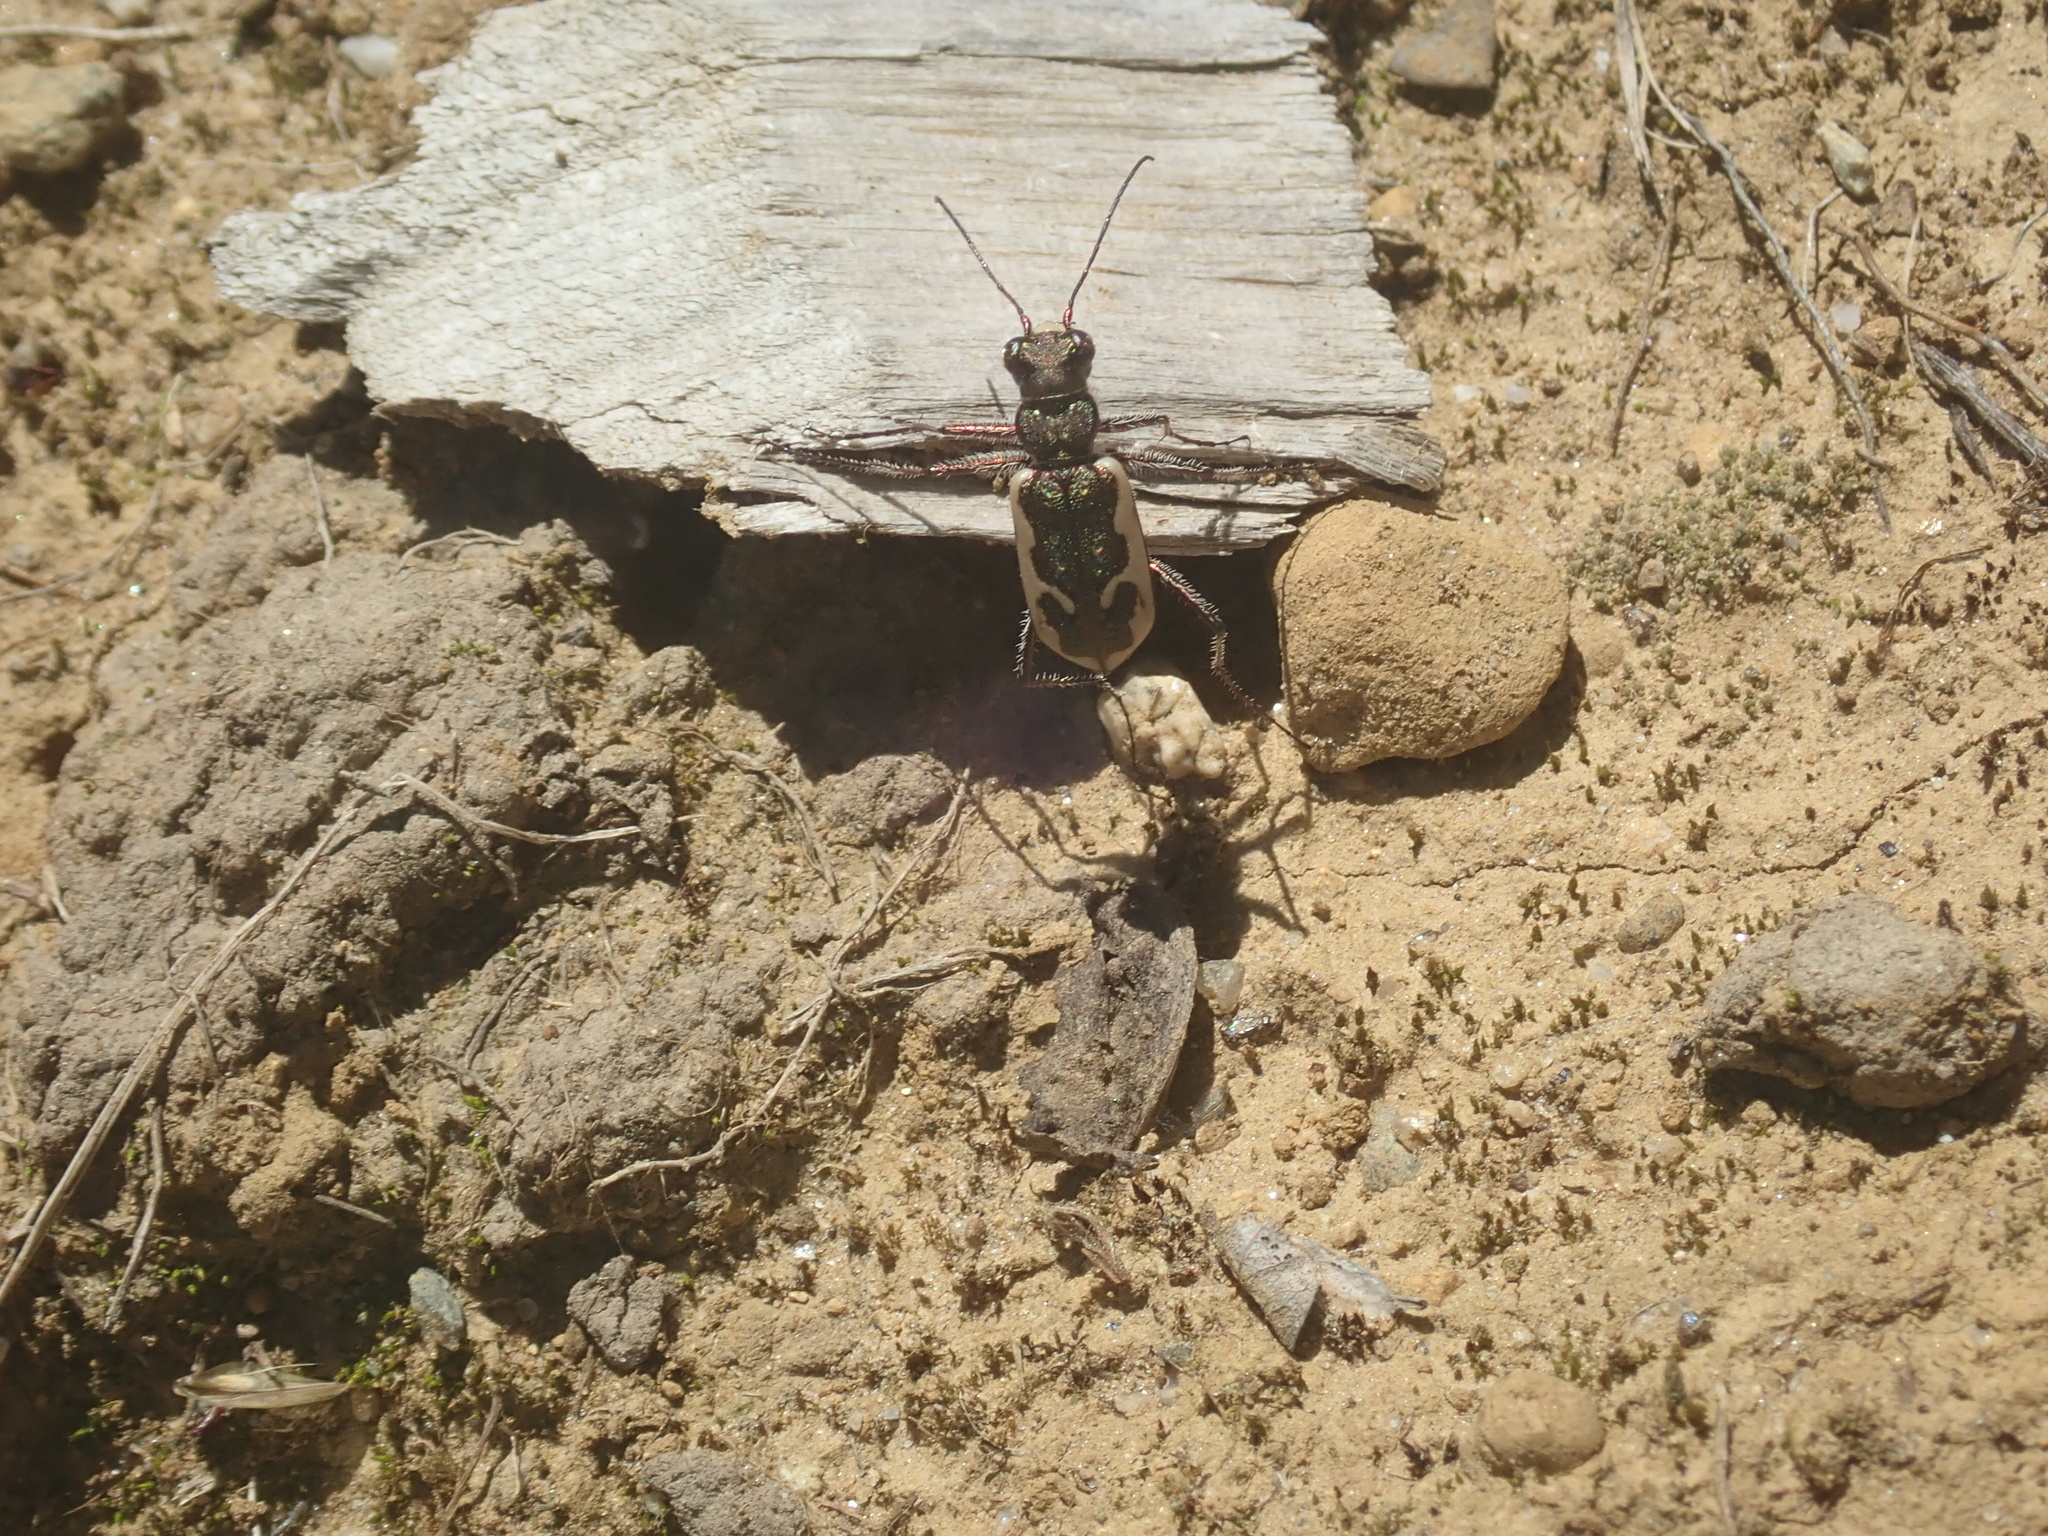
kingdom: Animalia
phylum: Arthropoda
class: Insecta
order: Coleoptera
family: Carabidae
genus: Neocicindela
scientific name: Neocicindela latecincta
